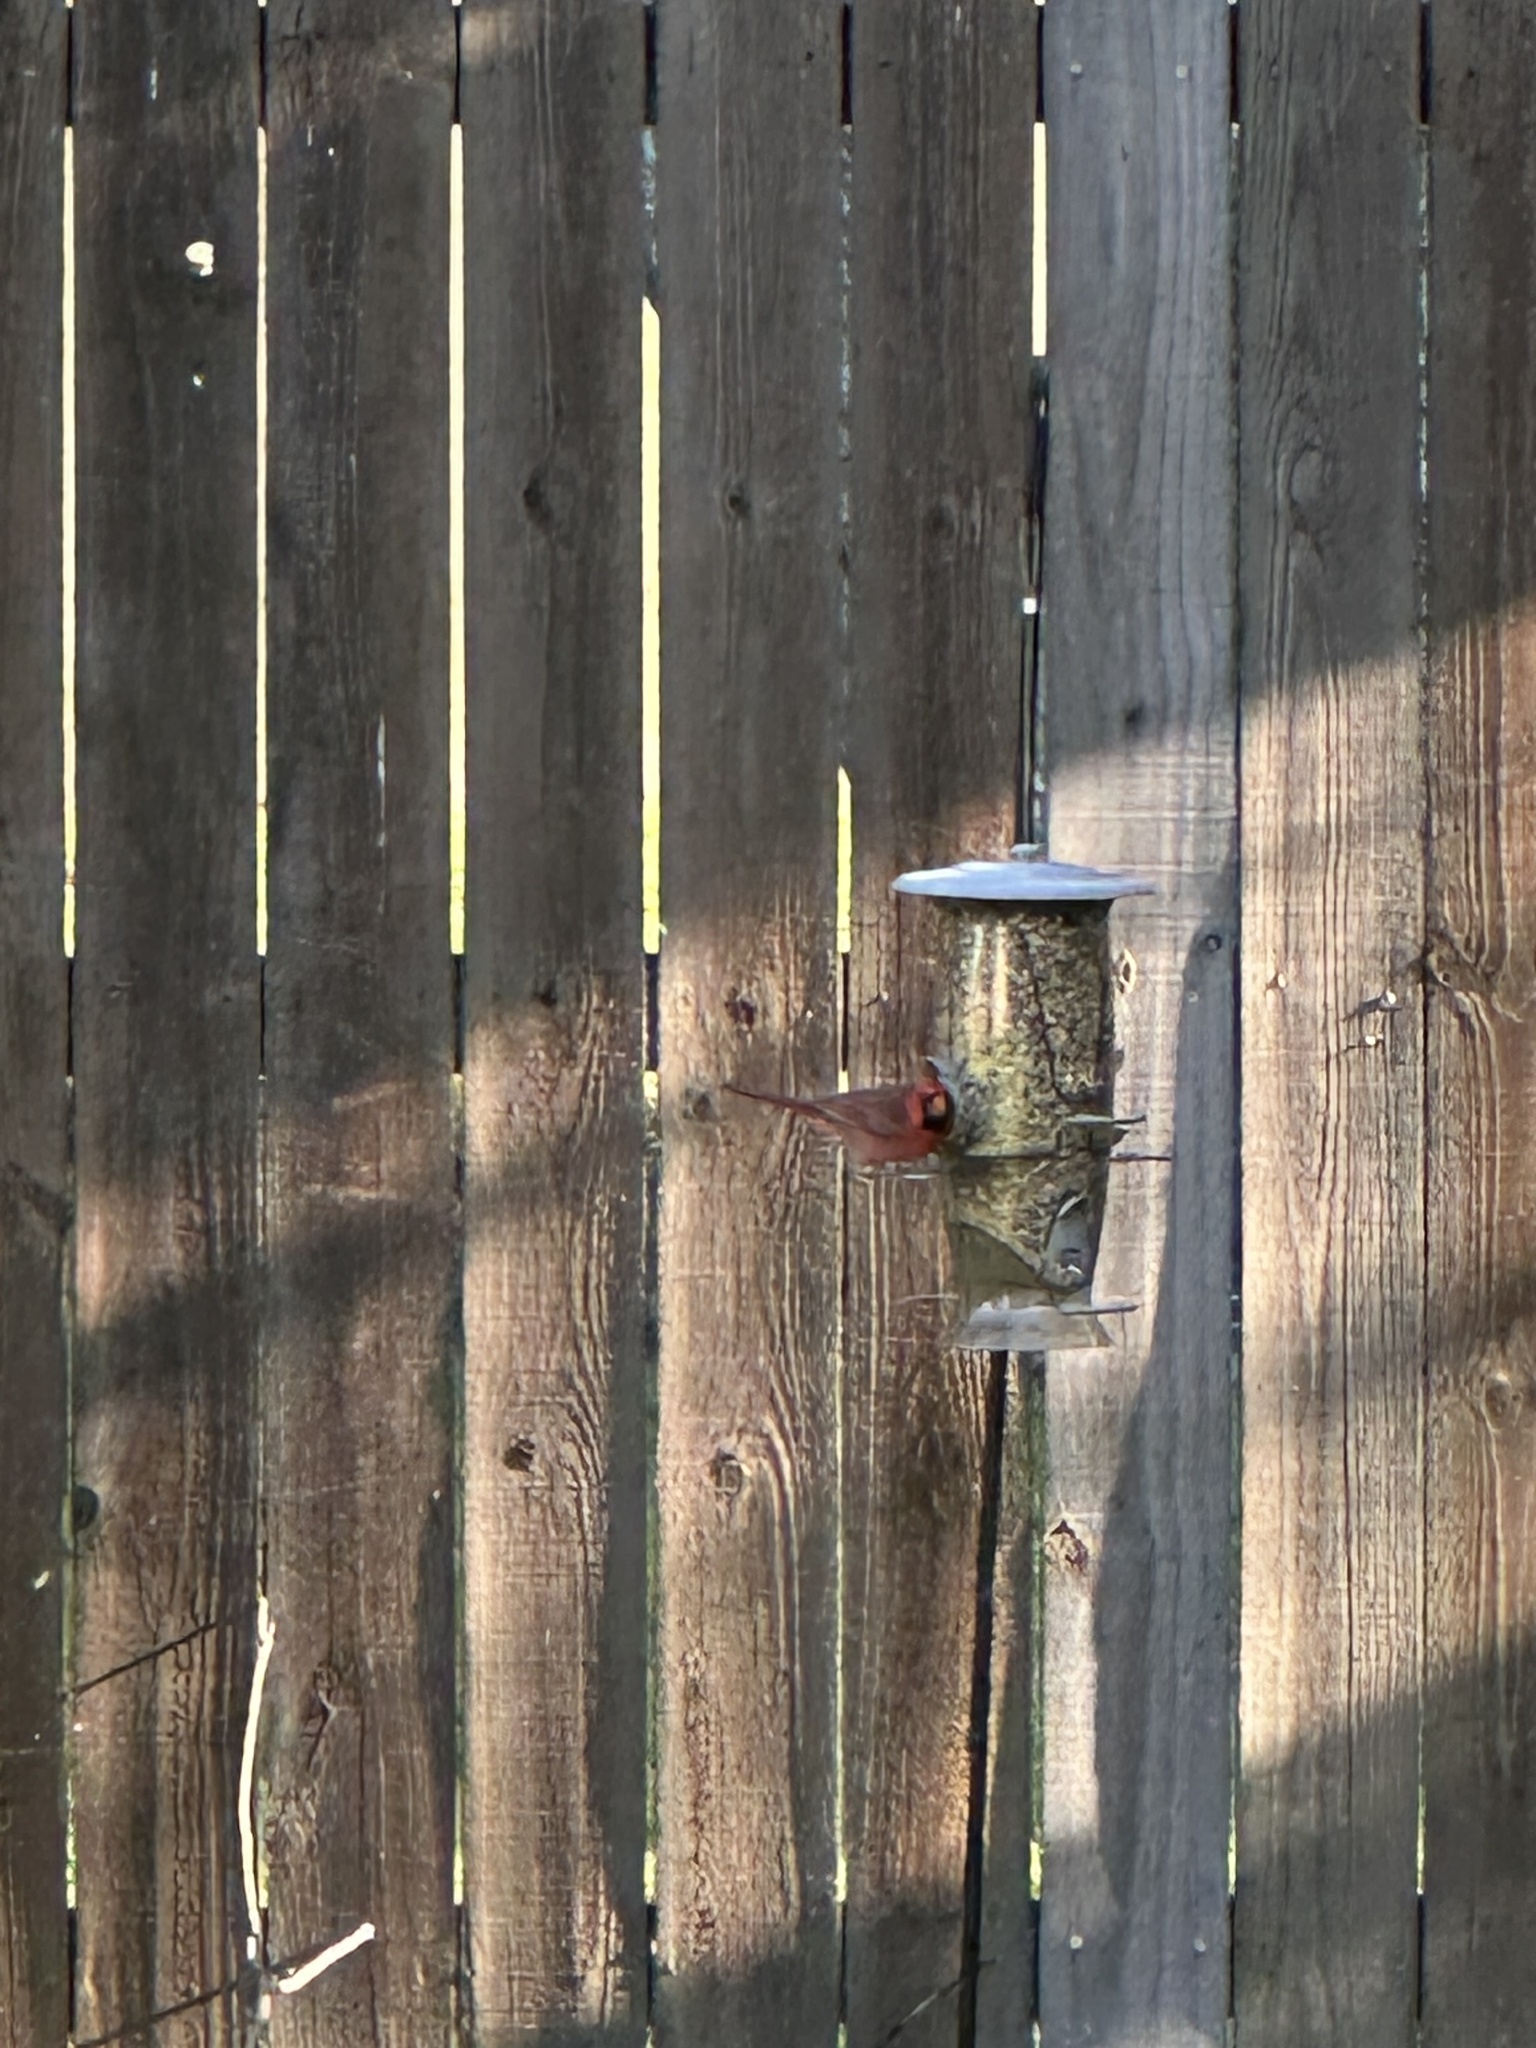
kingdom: Animalia
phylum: Chordata
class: Aves
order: Passeriformes
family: Cardinalidae
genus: Cardinalis
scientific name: Cardinalis cardinalis
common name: Northern cardinal
